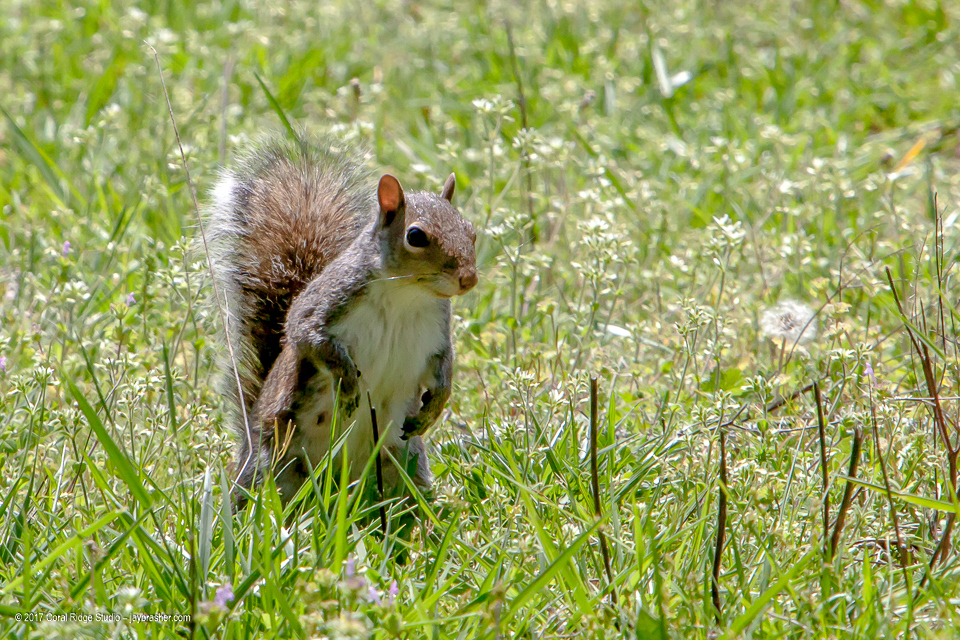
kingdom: Animalia
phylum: Chordata
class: Mammalia
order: Rodentia
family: Sciuridae
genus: Sciurus
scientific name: Sciurus carolinensis
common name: Eastern gray squirrel
